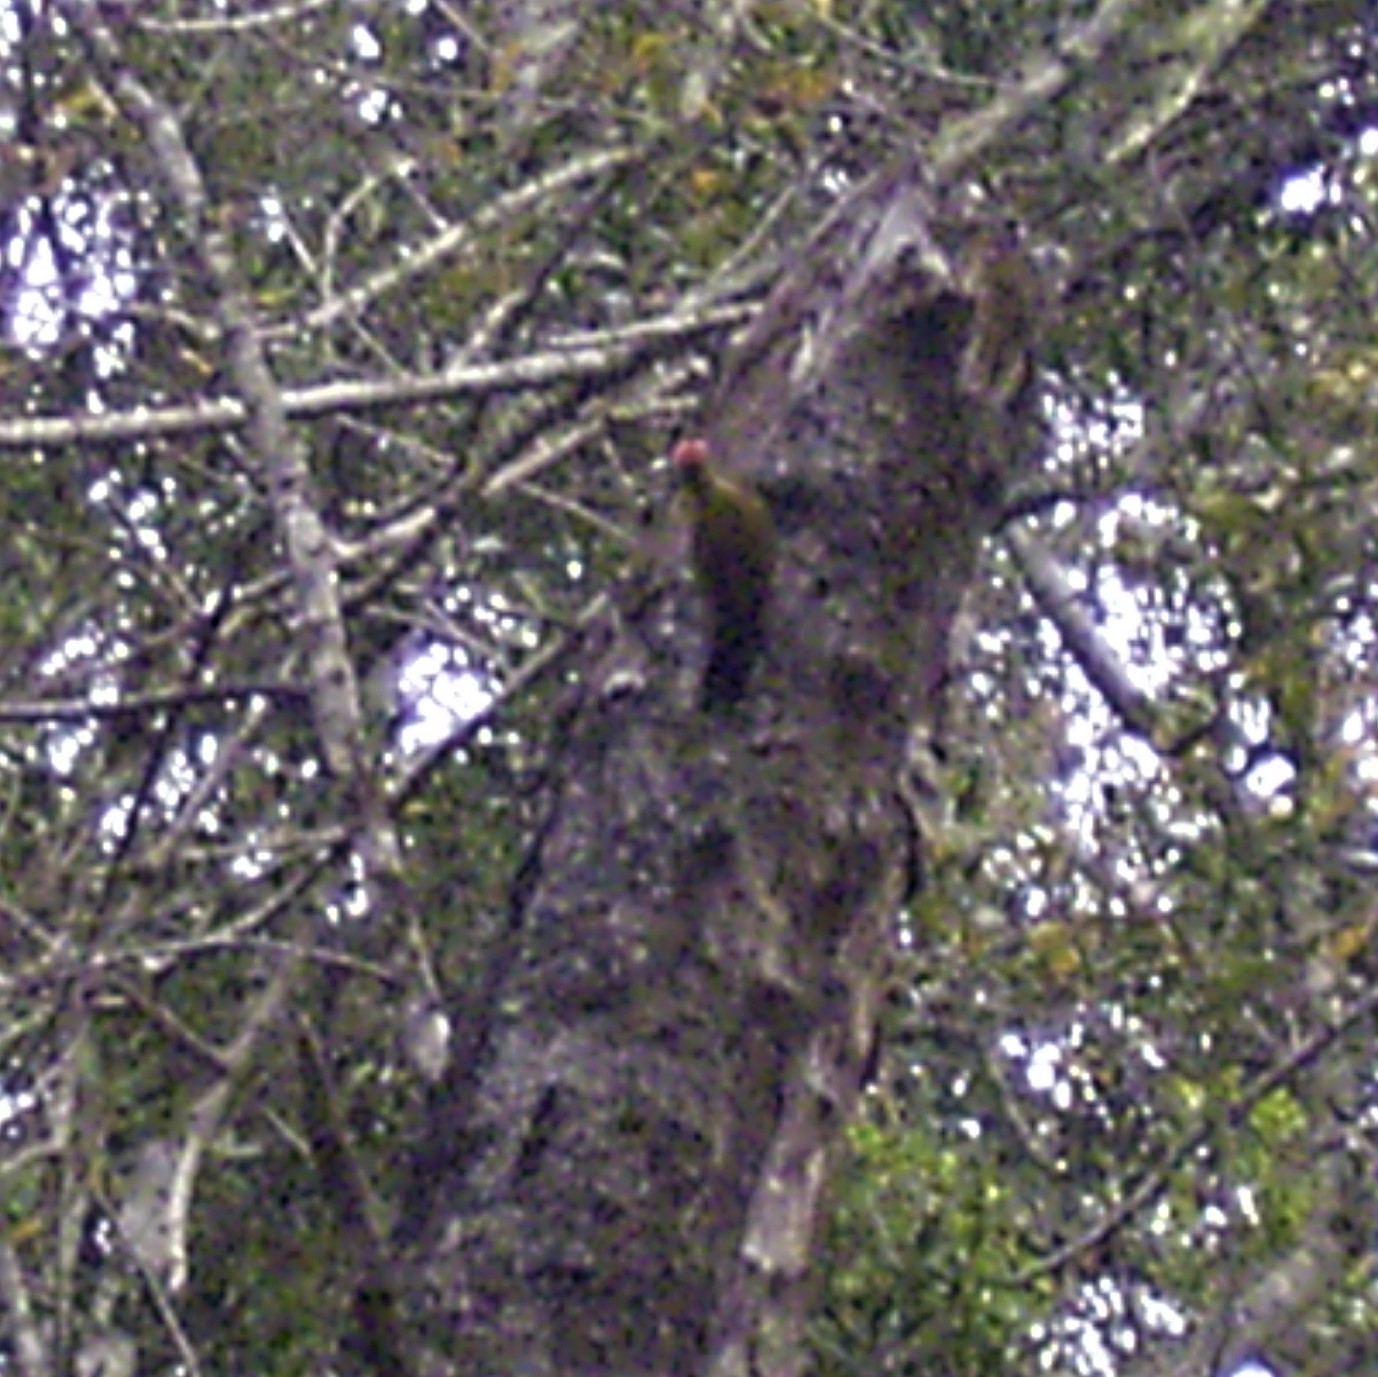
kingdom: Animalia
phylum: Chordata
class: Aves
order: Piciformes
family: Picidae
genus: Dendropicos
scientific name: Dendropicos griseocephalus
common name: Olive woodpecker
